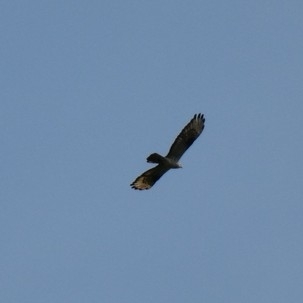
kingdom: Animalia
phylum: Chordata
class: Aves
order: Accipitriformes
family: Accipitridae
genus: Pernis
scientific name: Pernis apivorus
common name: European honey buzzard
